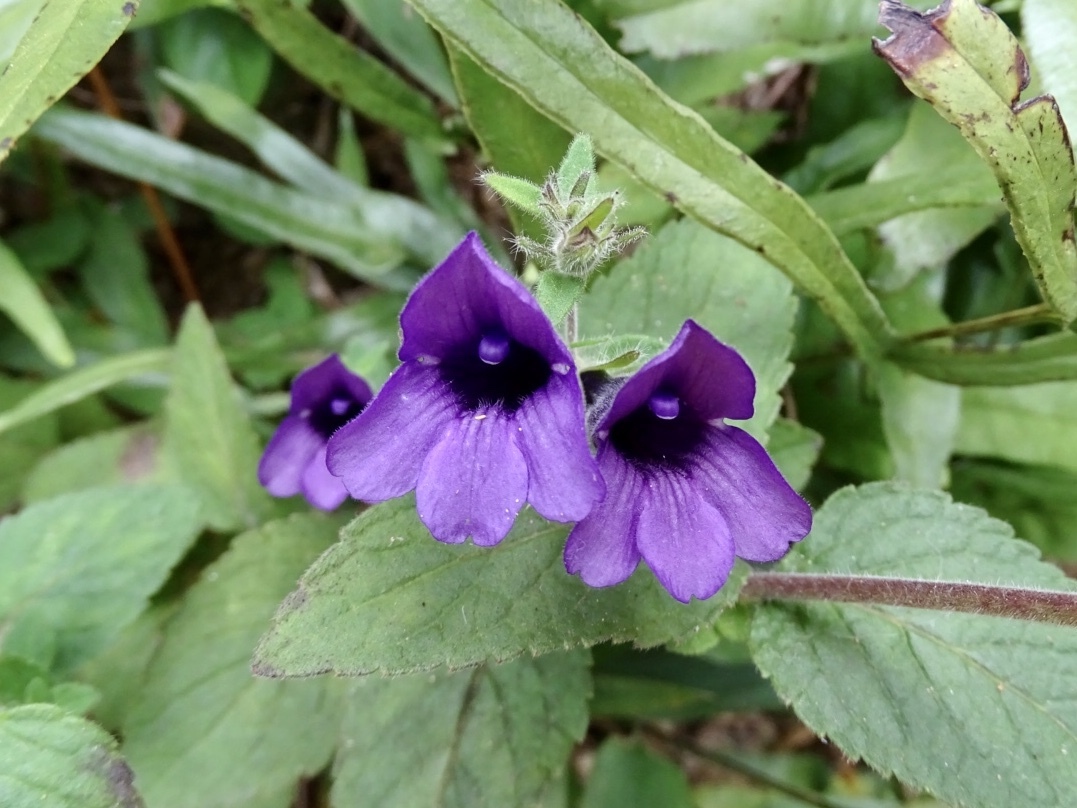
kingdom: Plantae
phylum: Tracheophyta
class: Magnoliopsida
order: Lamiales
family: Plantaginaceae
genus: Adenosma
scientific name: Adenosma glutinosa
